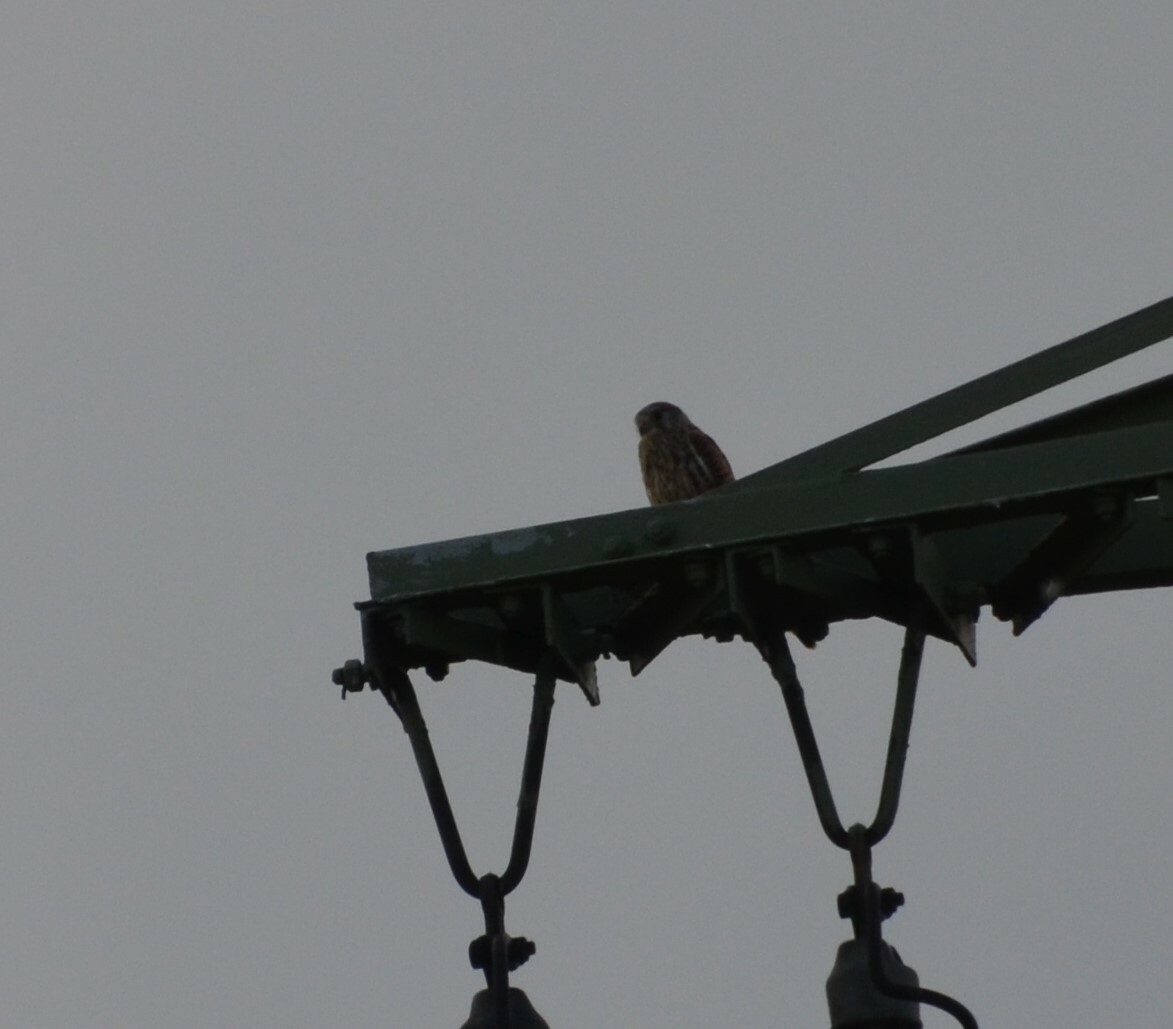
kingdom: Animalia
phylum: Chordata
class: Aves
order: Falconiformes
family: Falconidae
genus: Falco
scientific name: Falco tinnunculus
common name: Common kestrel
